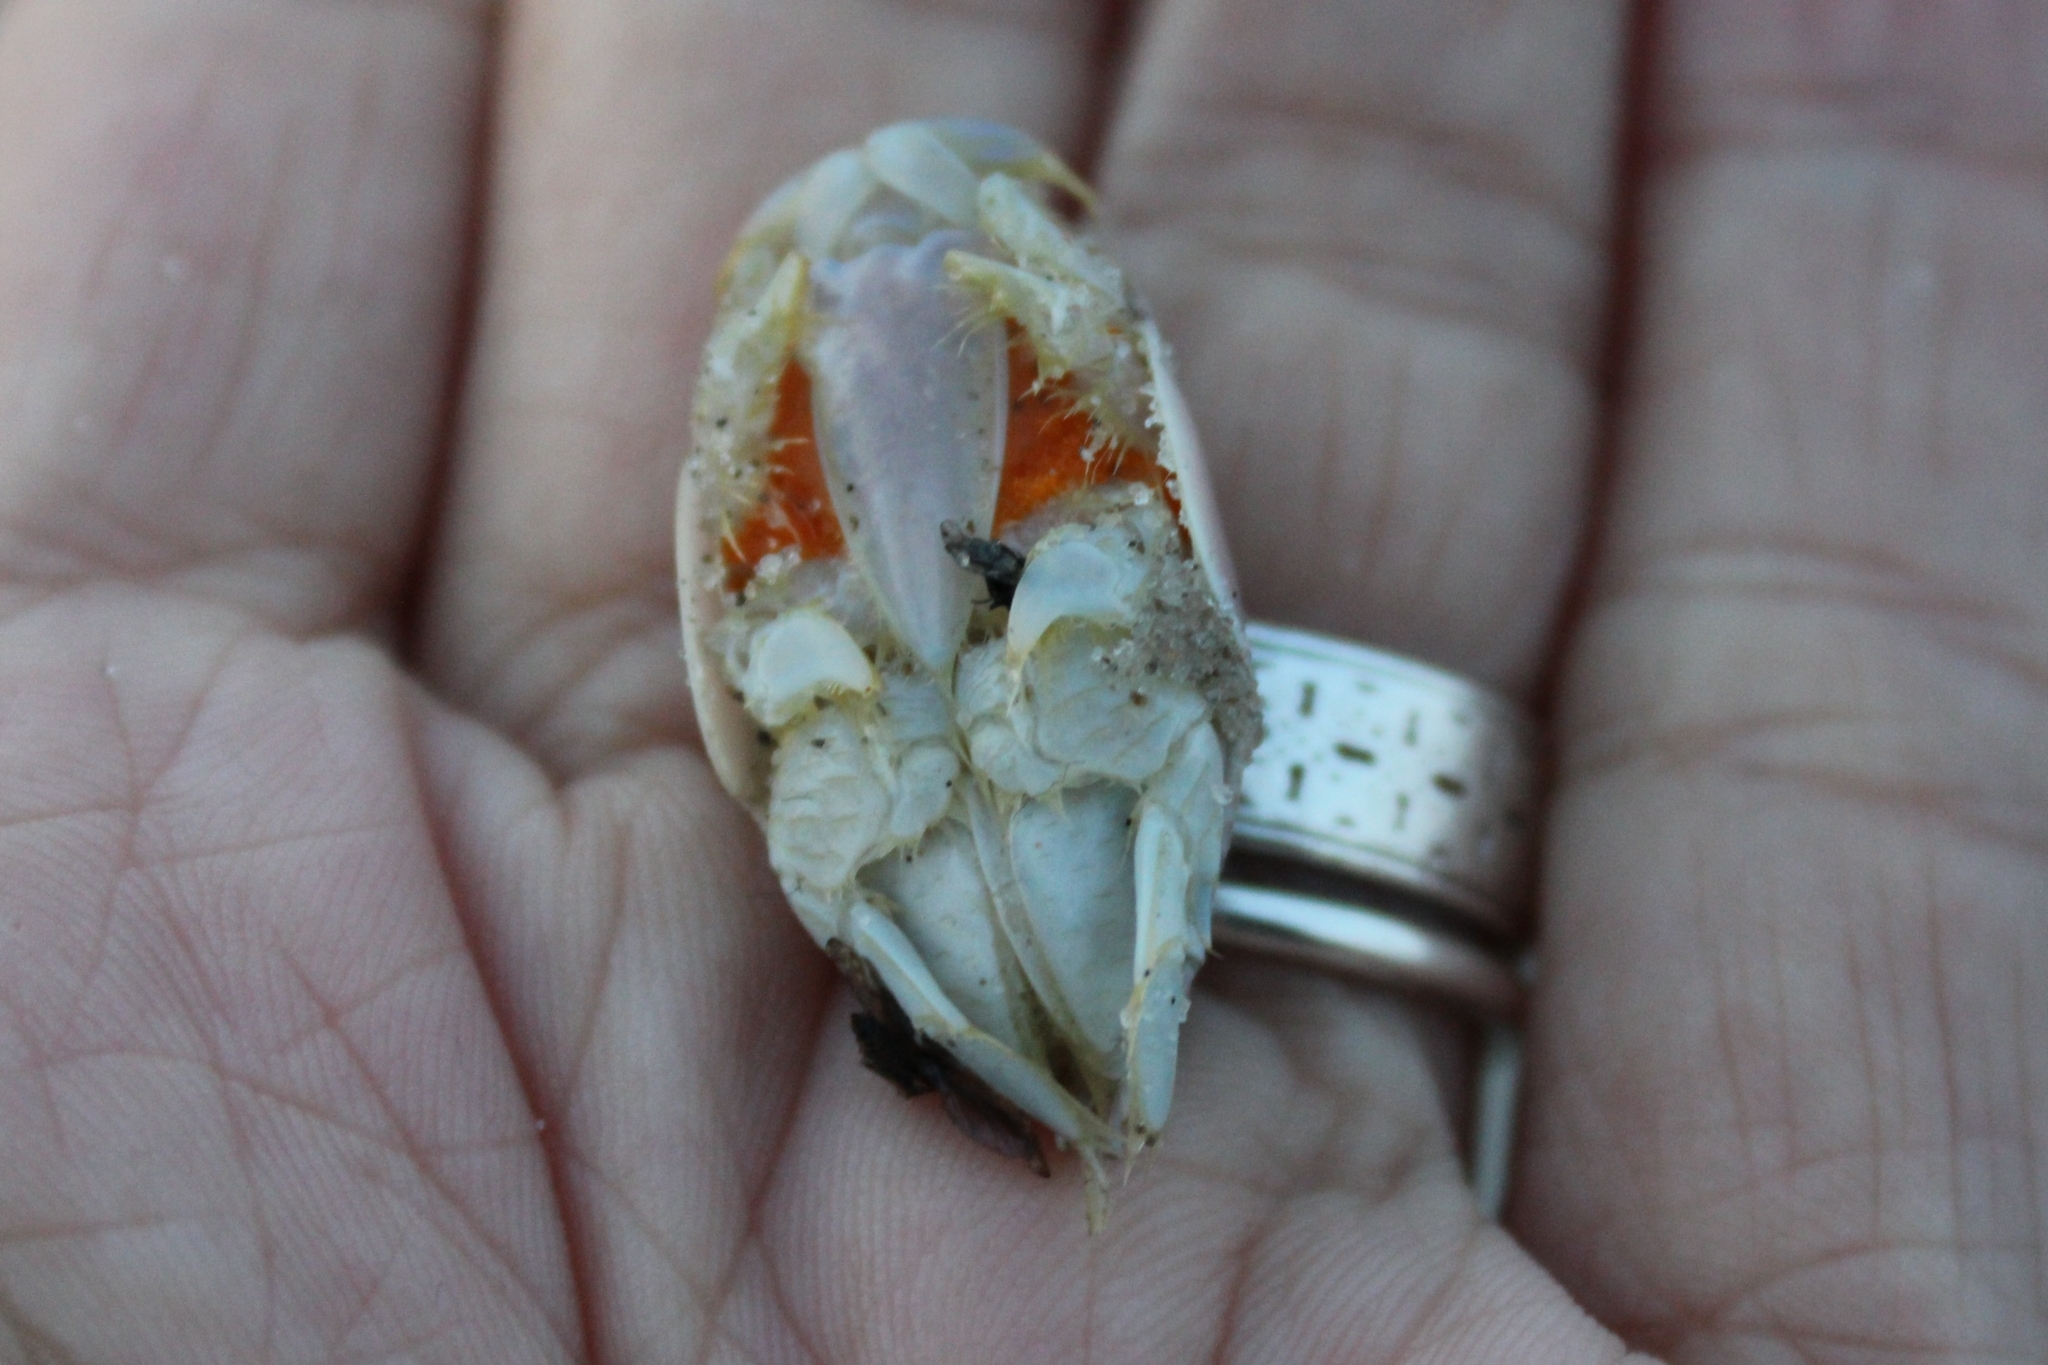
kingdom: Animalia
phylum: Arthropoda
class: Malacostraca
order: Decapoda
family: Hippidae
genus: Emerita
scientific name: Emerita talpoida
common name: Atlantic sand crab
